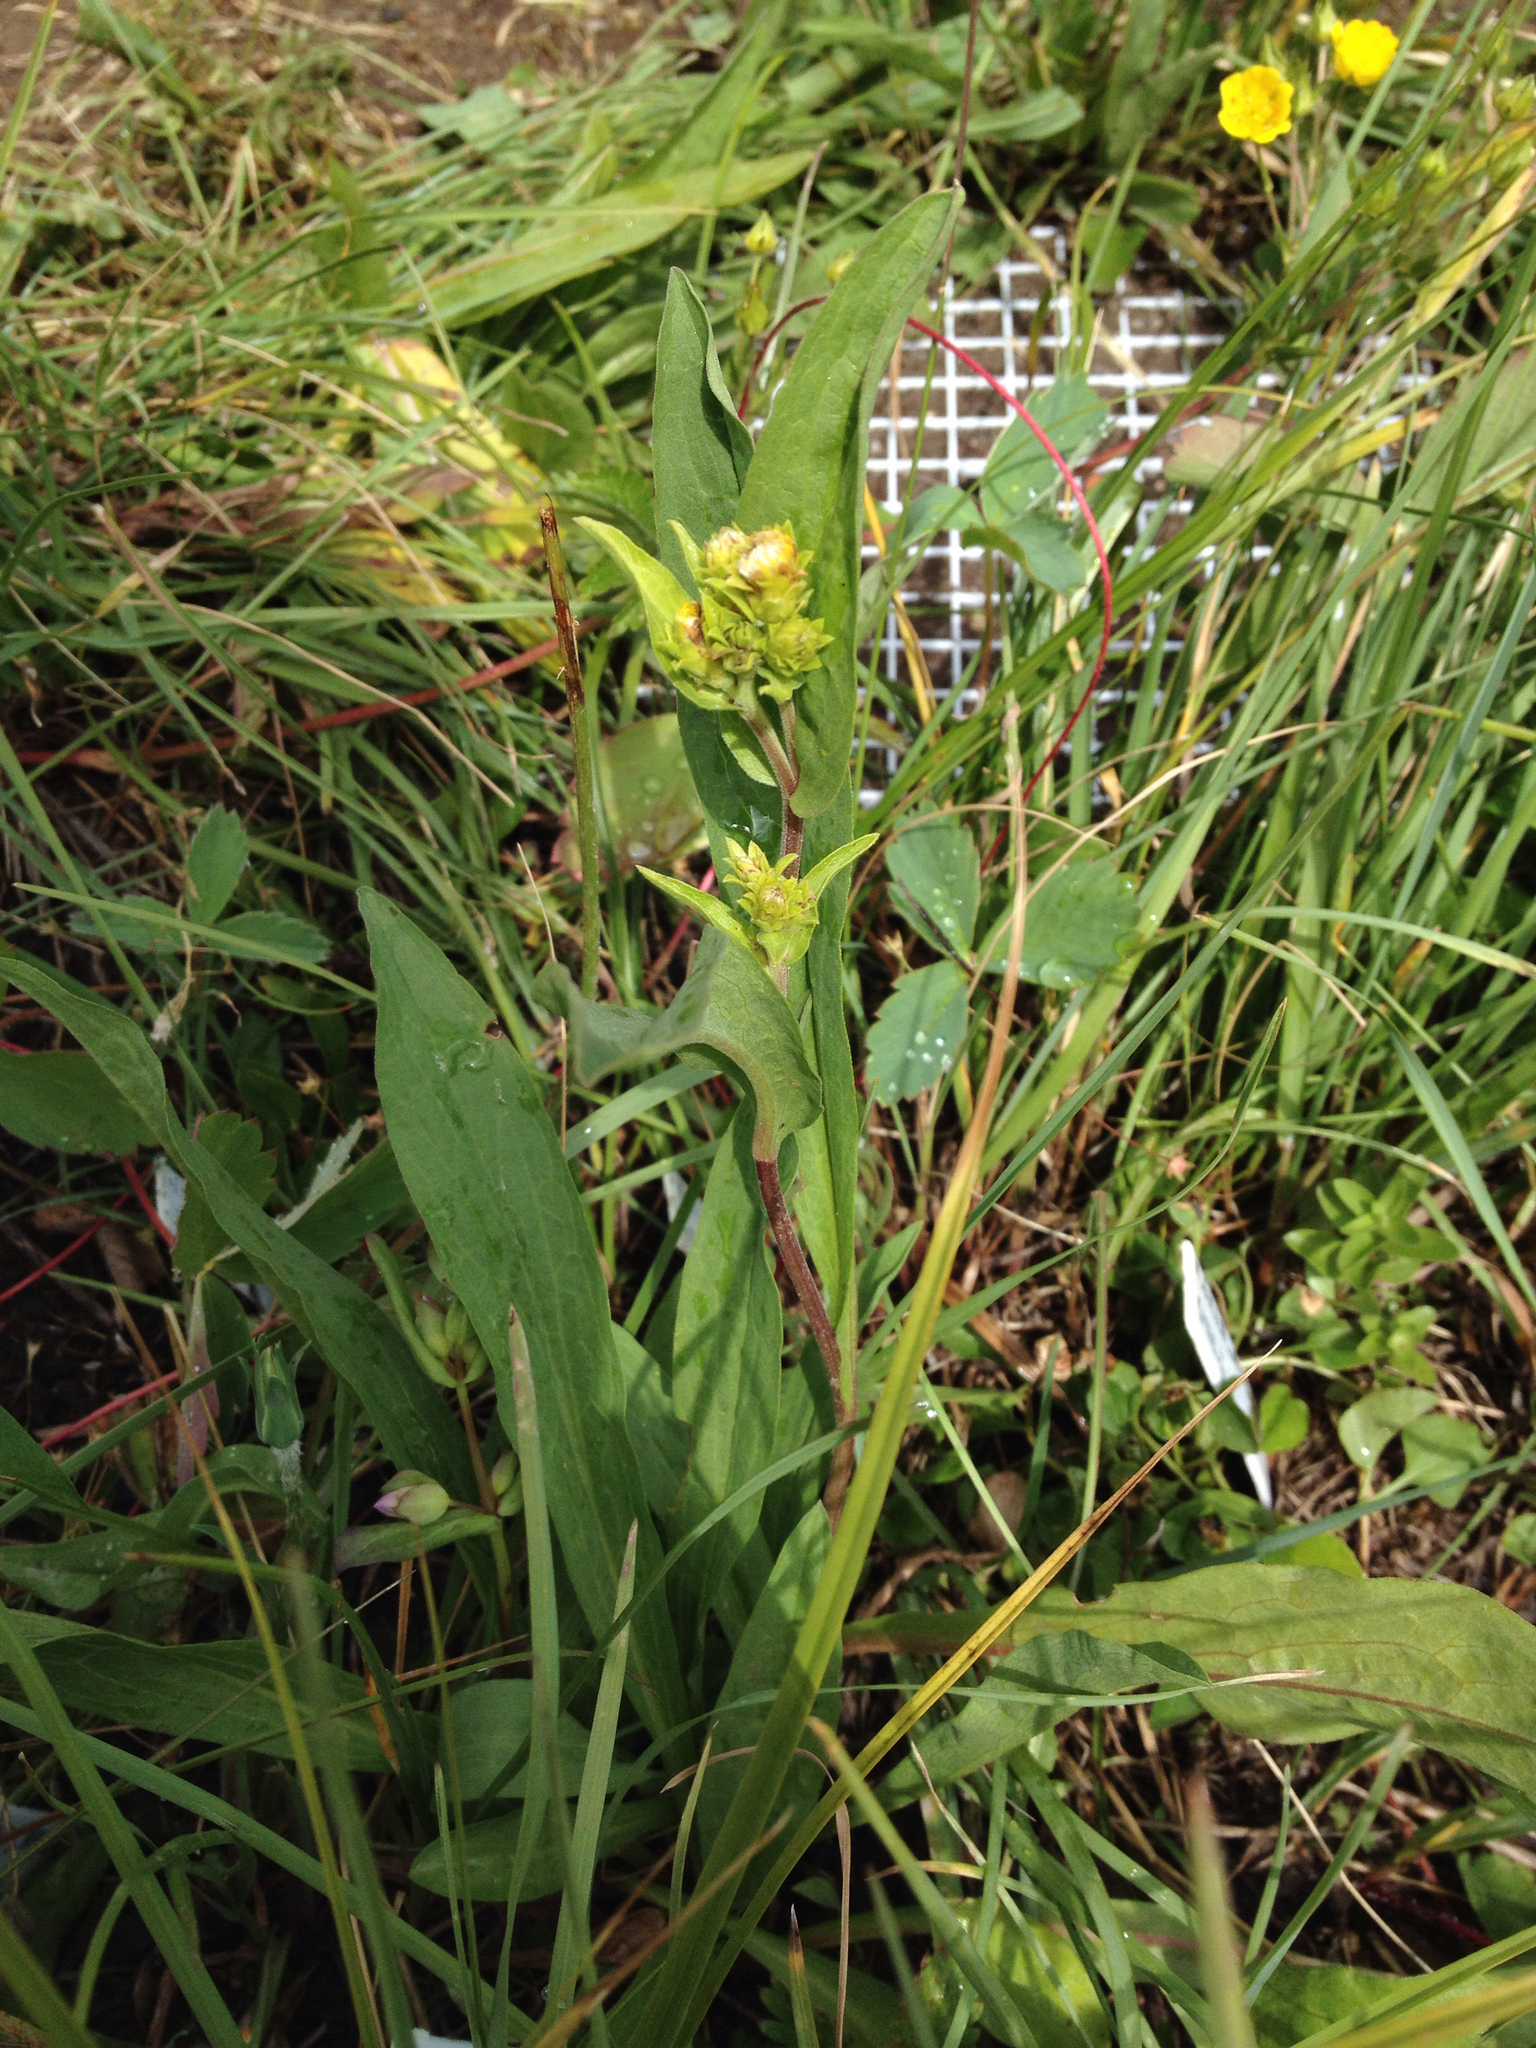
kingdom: Plantae
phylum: Tracheophyta
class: Magnoliopsida
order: Asterales
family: Asteraceae
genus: Pyrrocoma
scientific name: Pyrrocoma crocea
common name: Curly-head goldenweed
